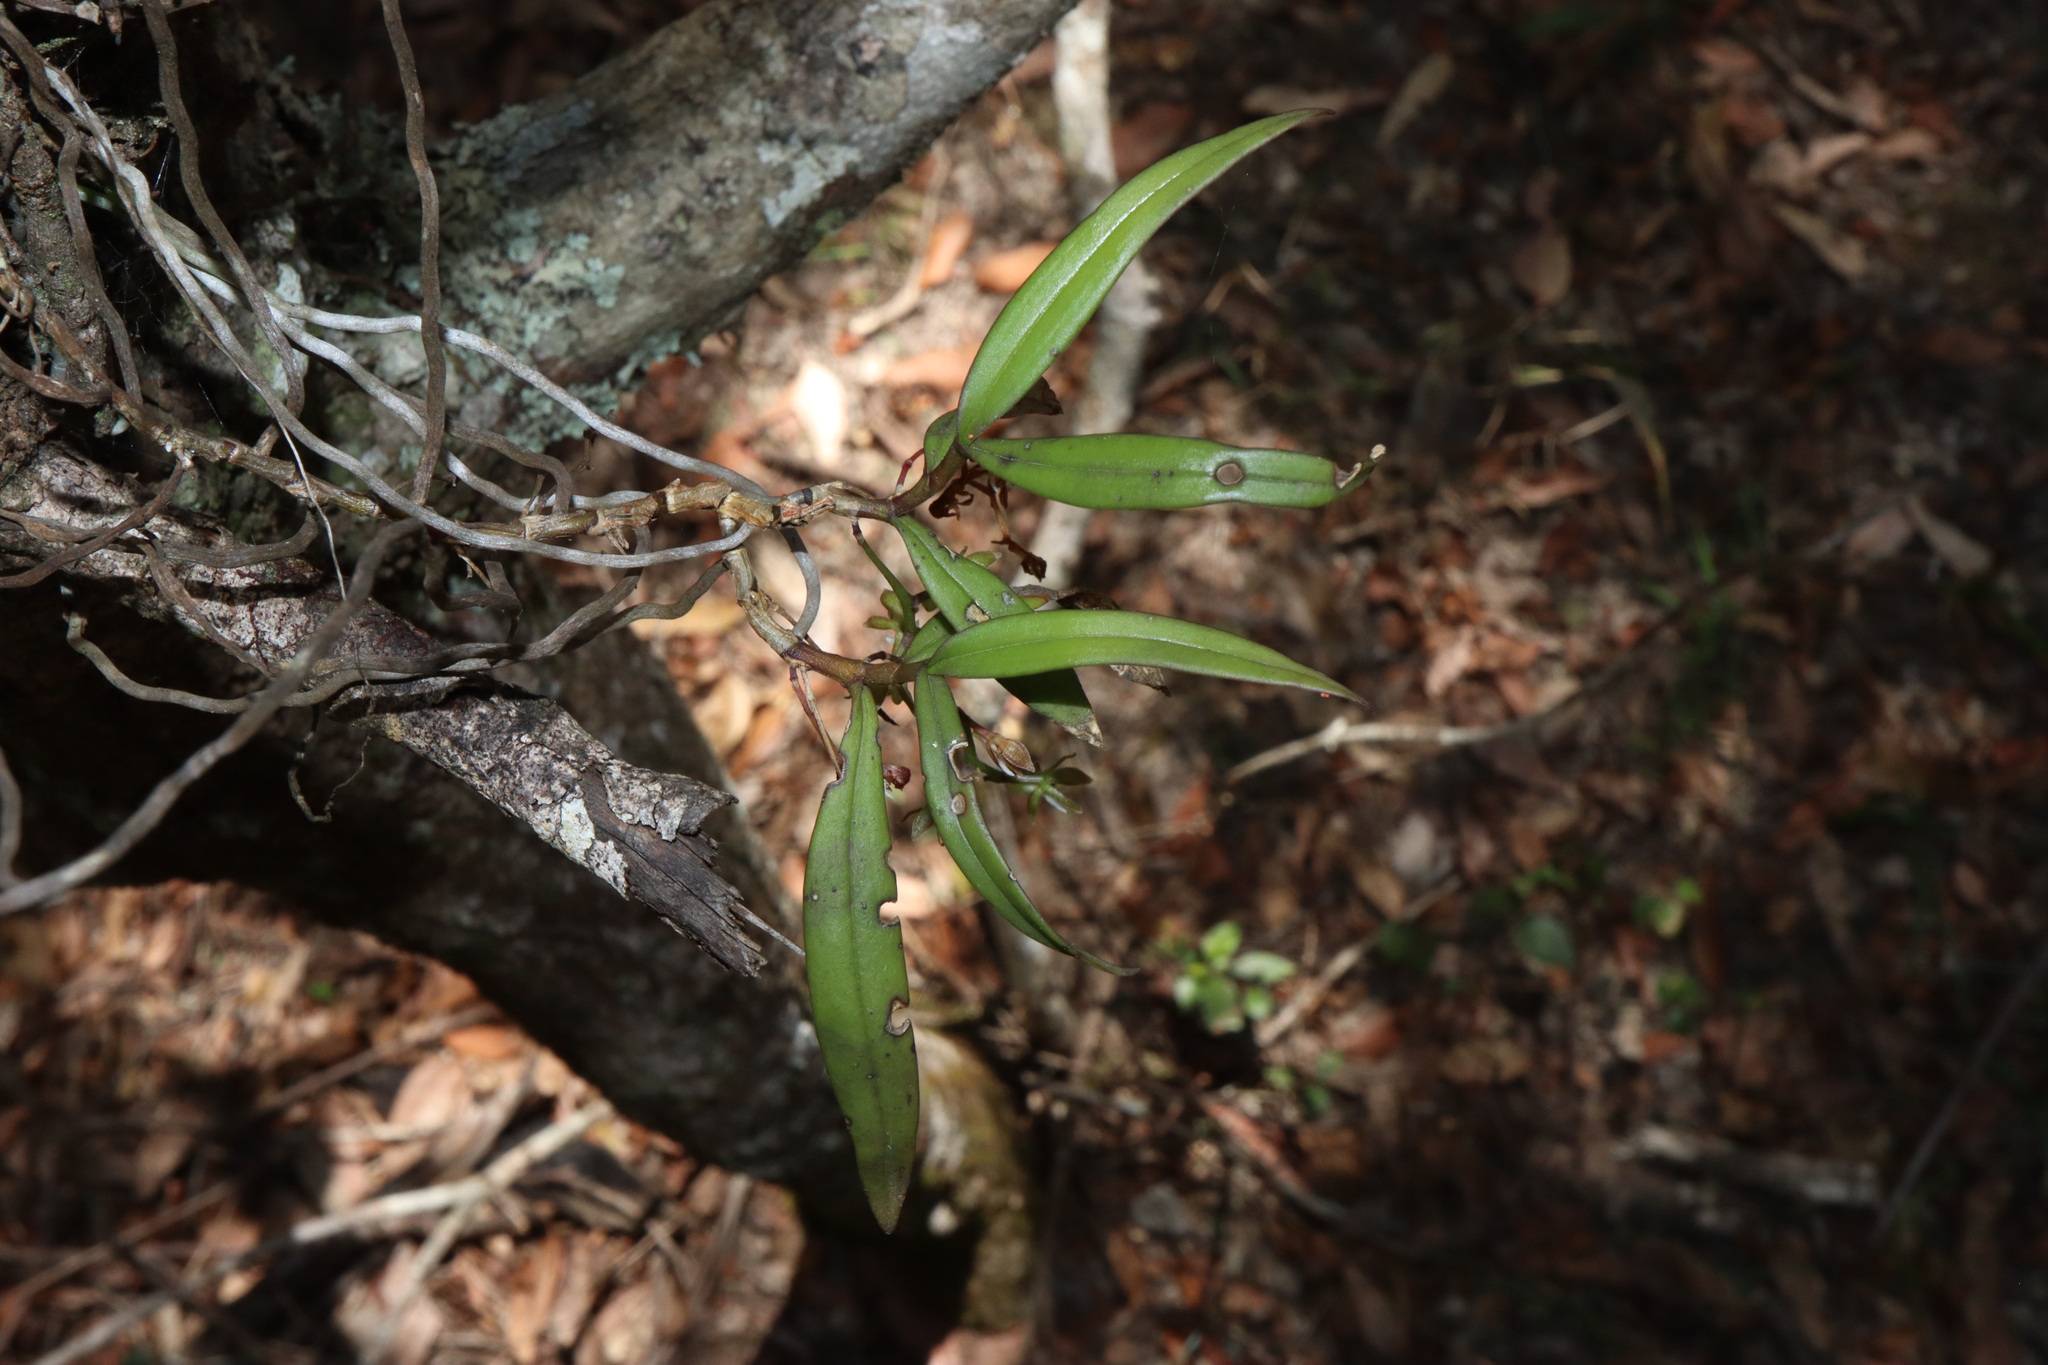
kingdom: Plantae
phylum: Tracheophyta
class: Liliopsida
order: Asparagales
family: Orchidaceae
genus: Plectorrhiza
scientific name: Plectorrhiza tridentata
